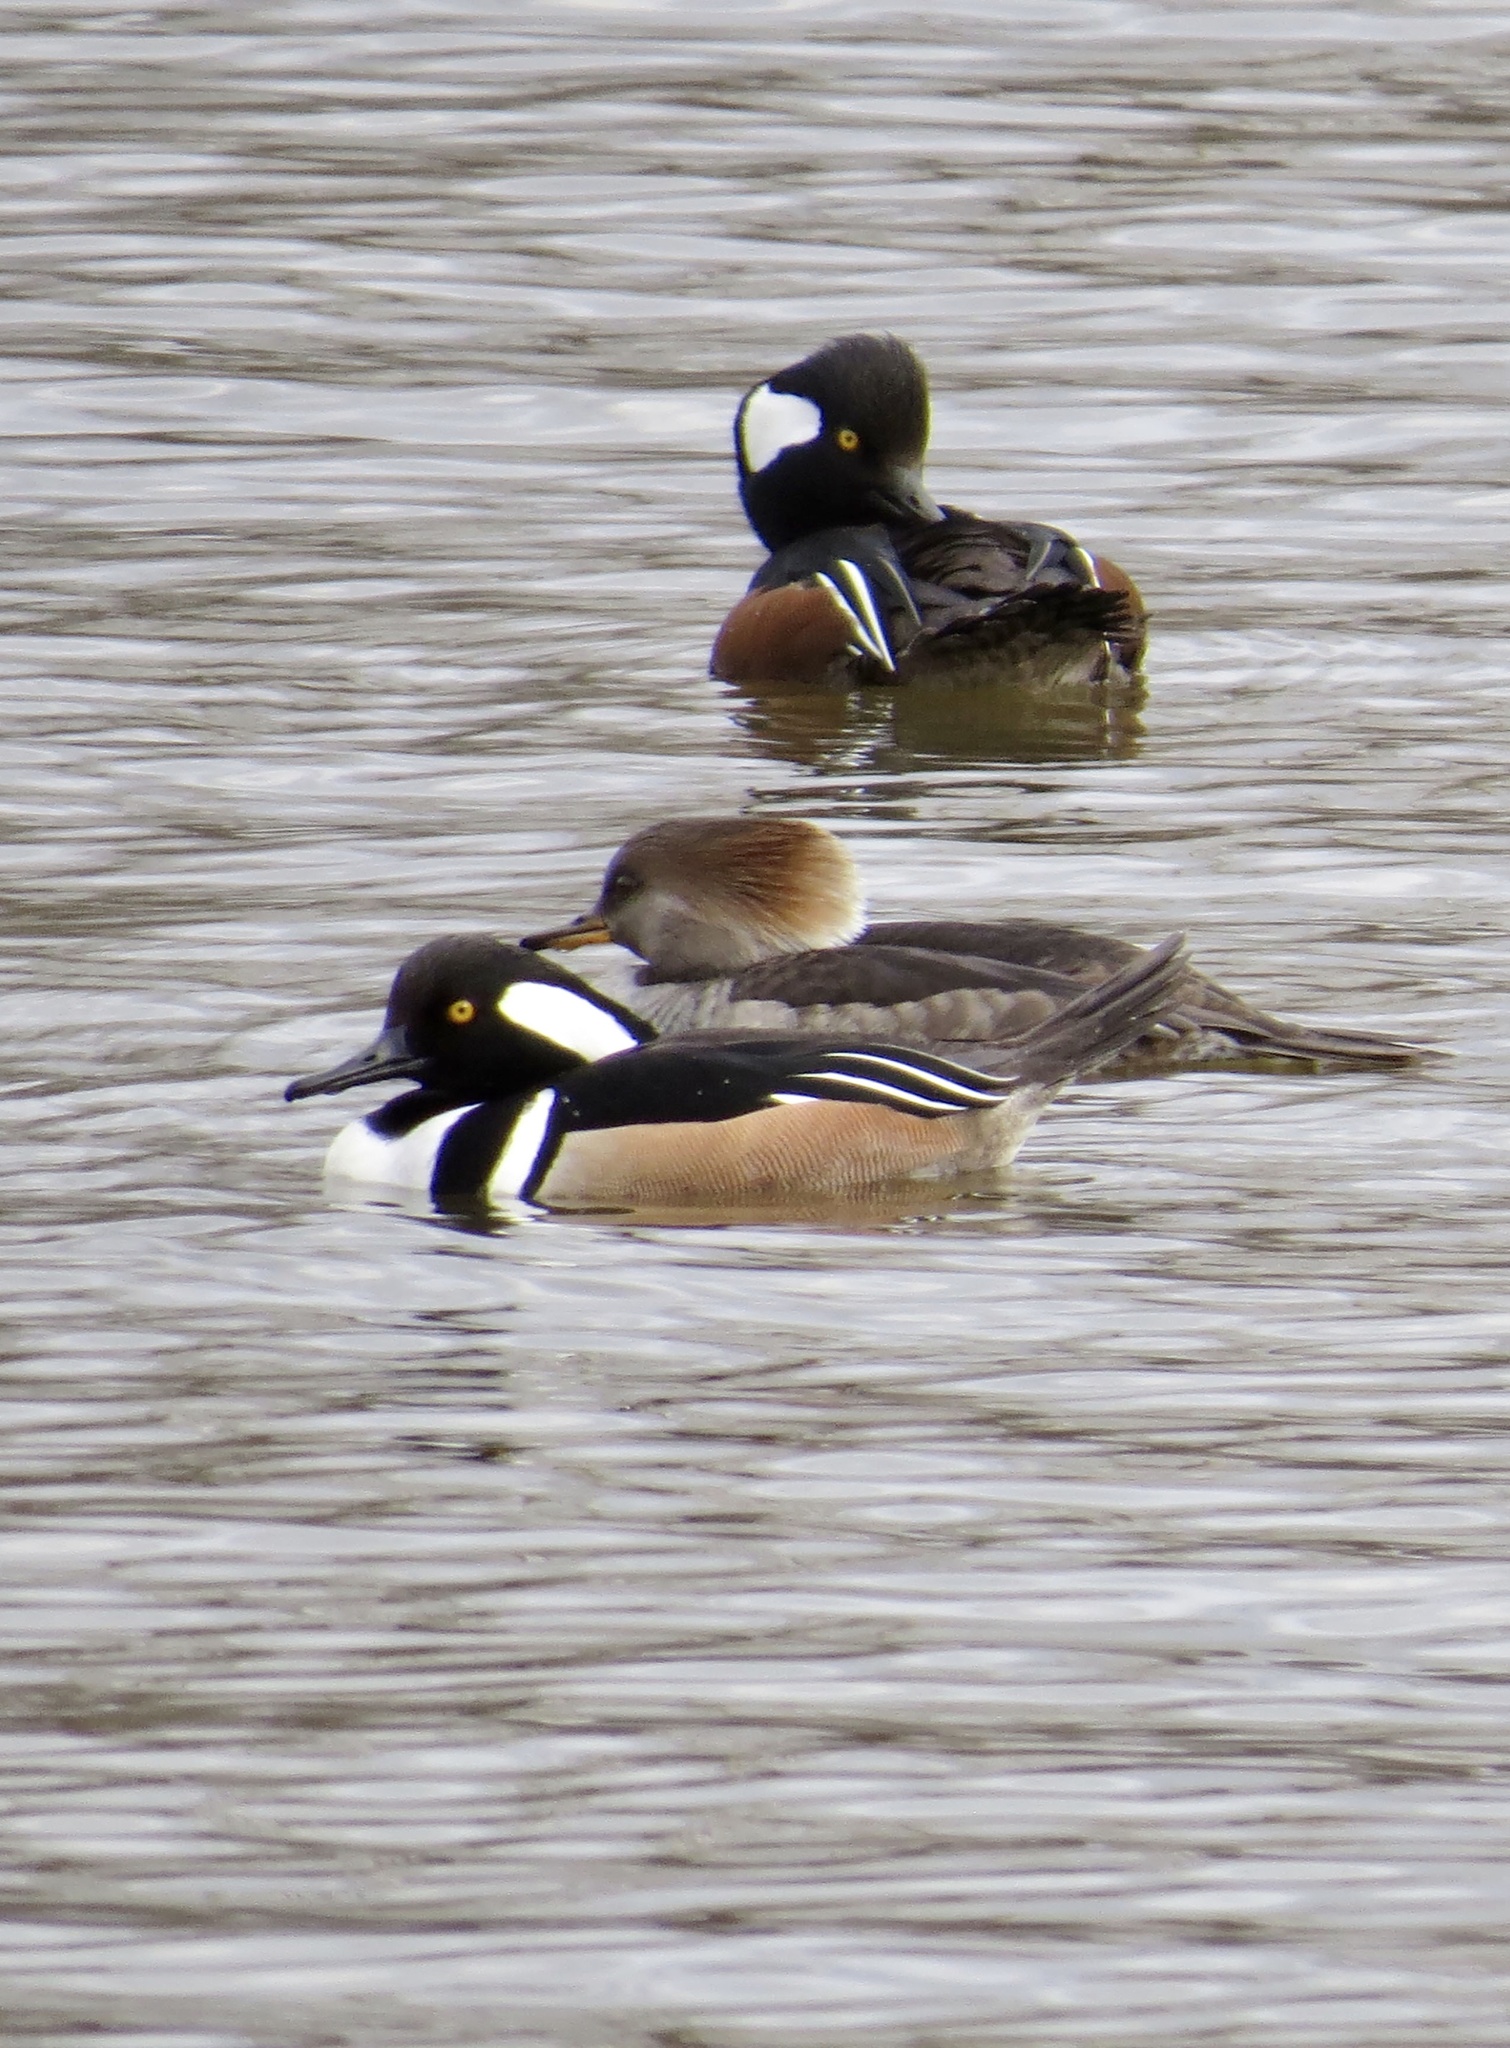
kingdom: Animalia
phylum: Chordata
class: Aves
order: Anseriformes
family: Anatidae
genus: Lophodytes
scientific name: Lophodytes cucullatus
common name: Hooded merganser
